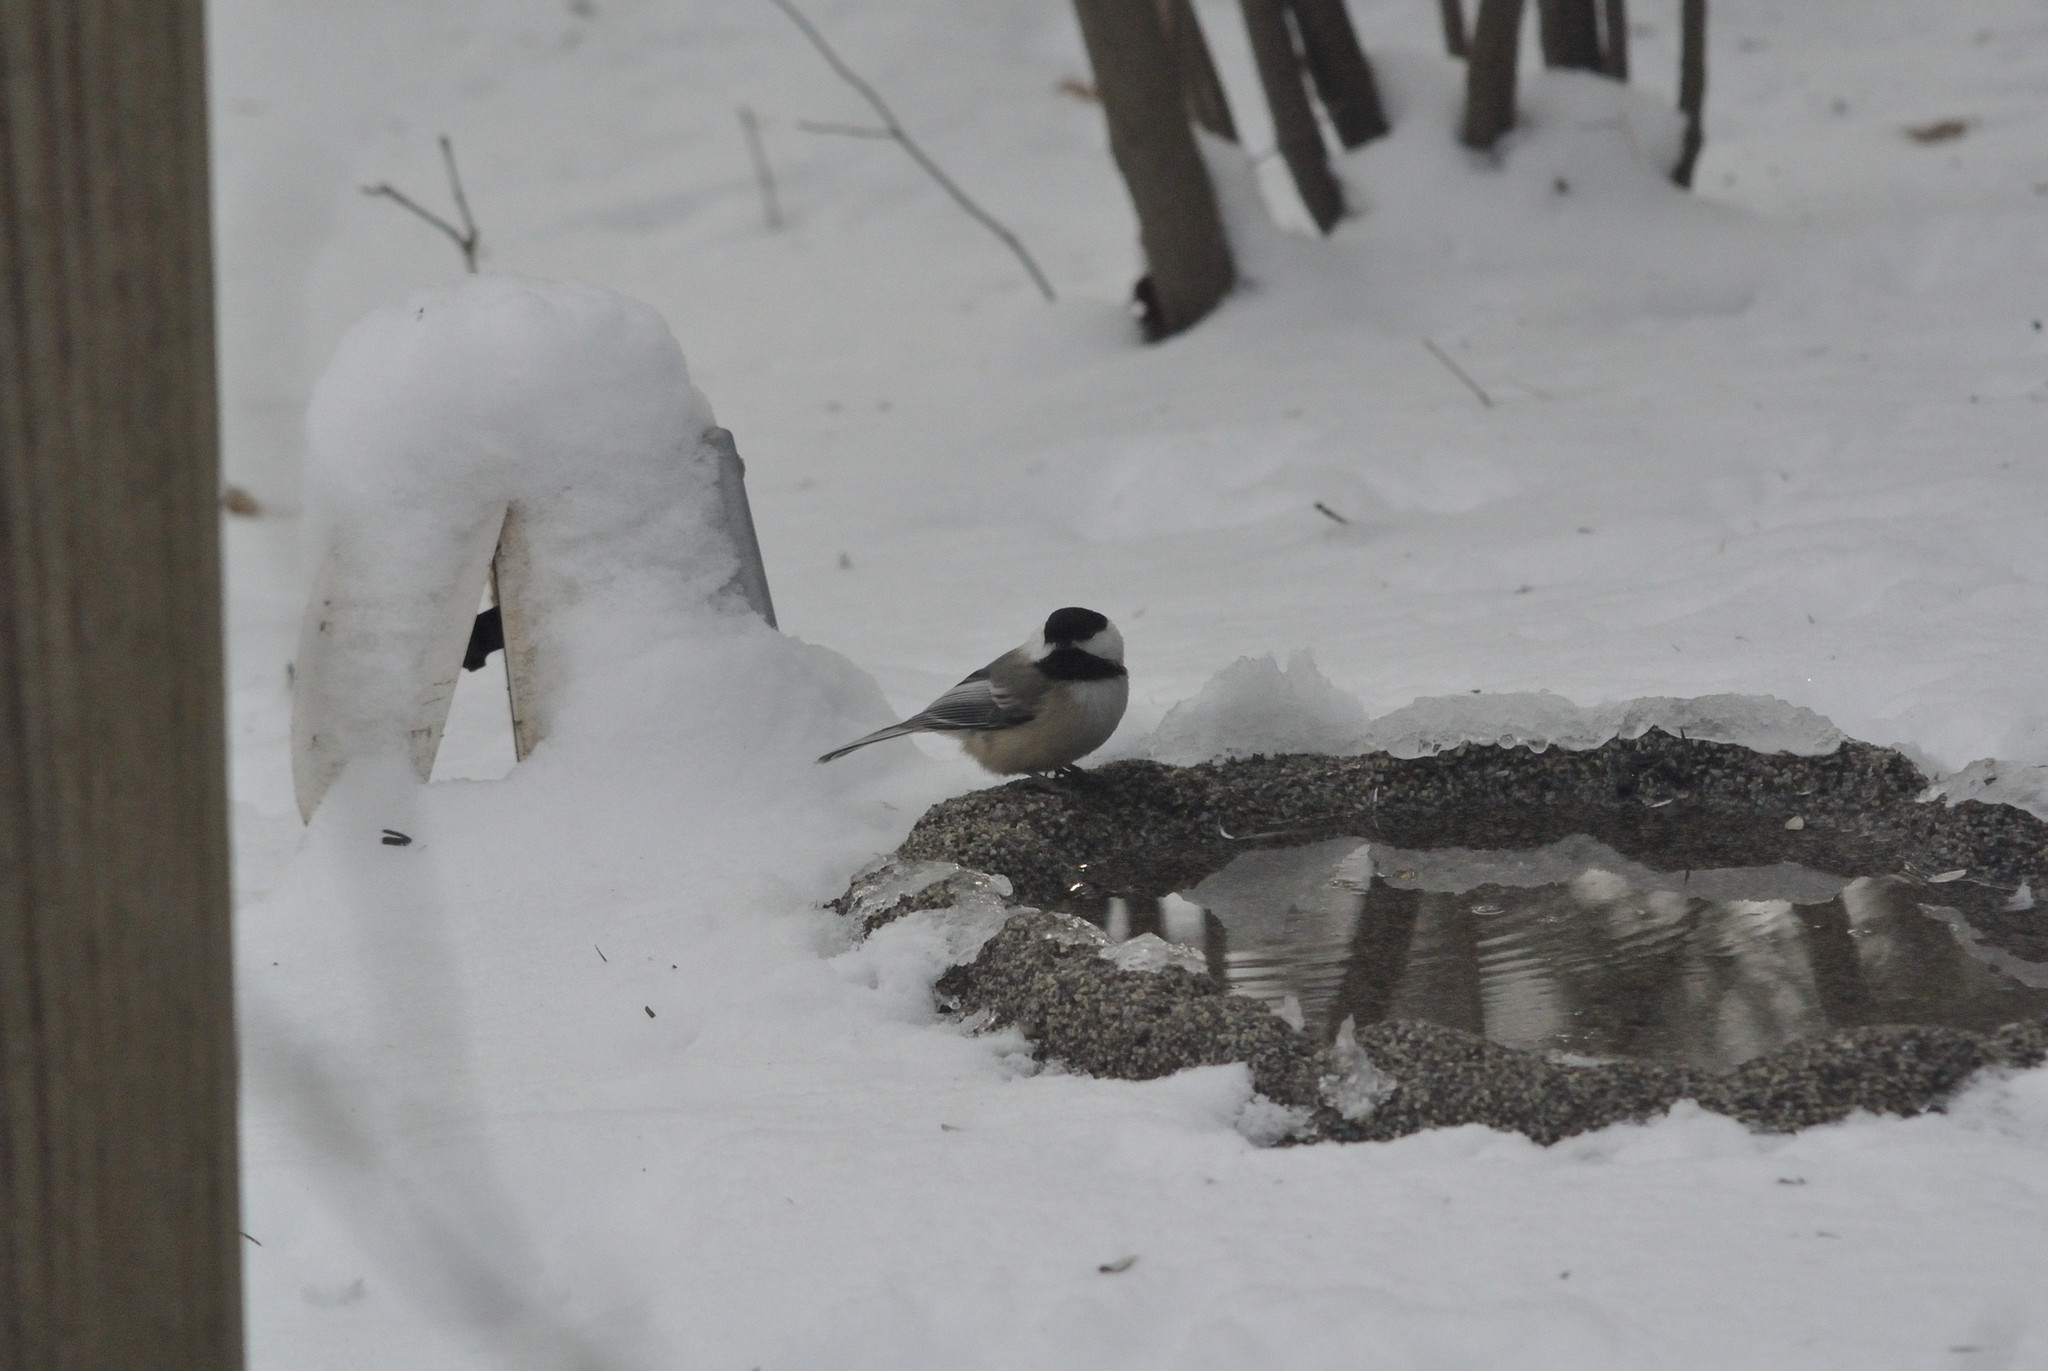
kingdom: Animalia
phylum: Chordata
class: Aves
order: Passeriformes
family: Paridae
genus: Poecile
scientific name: Poecile atricapillus
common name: Black-capped chickadee
